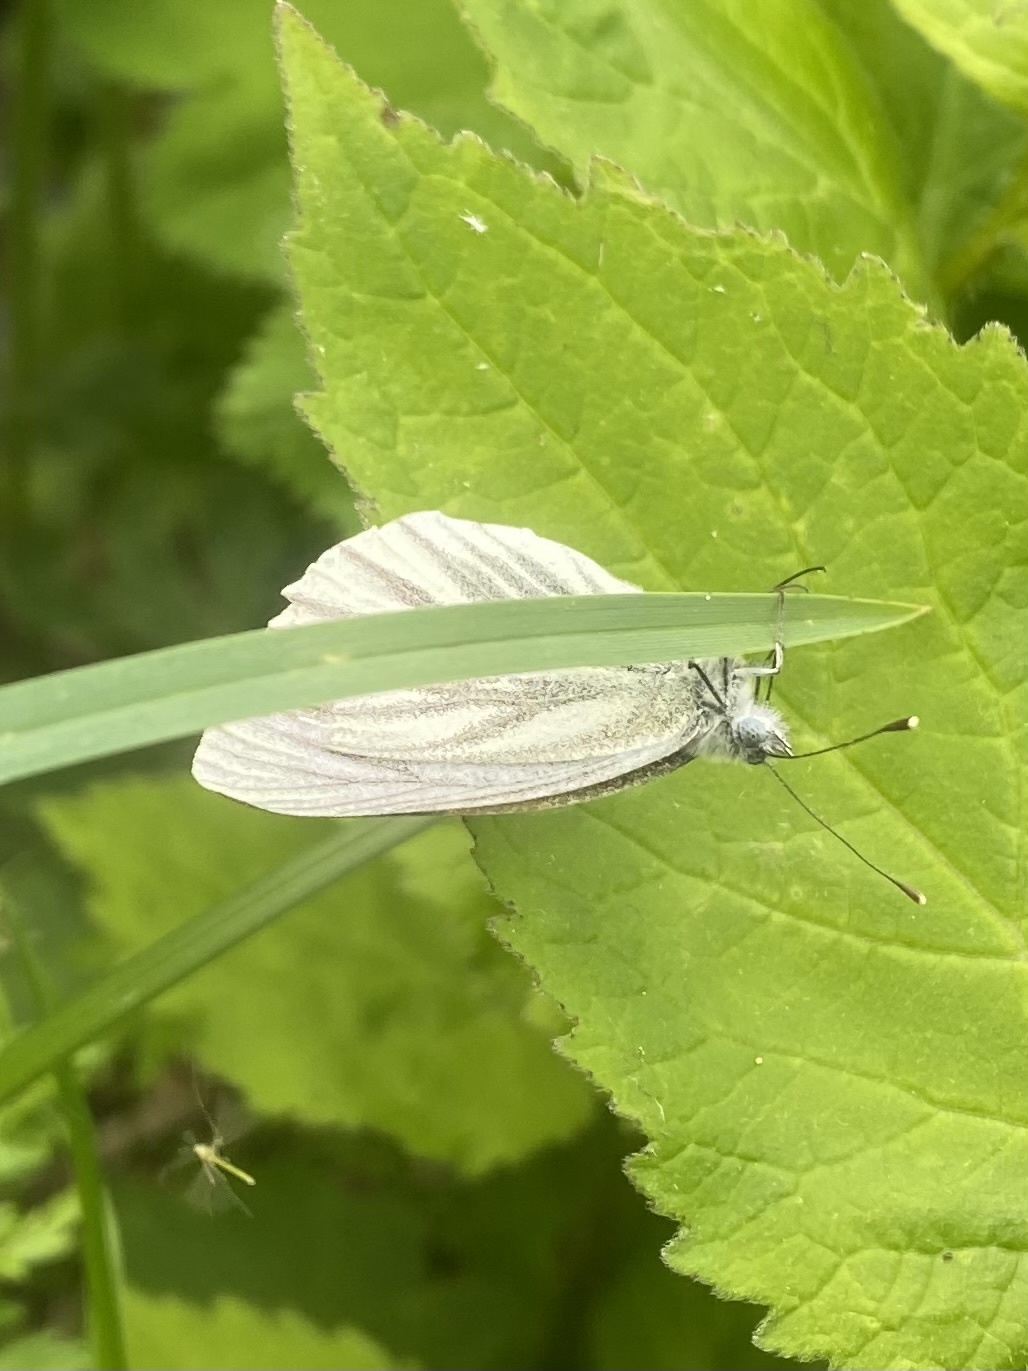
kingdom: Animalia
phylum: Arthropoda
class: Insecta
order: Lepidoptera
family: Pieridae
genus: Pieris
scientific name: Pieris napi
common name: Green-veined white
